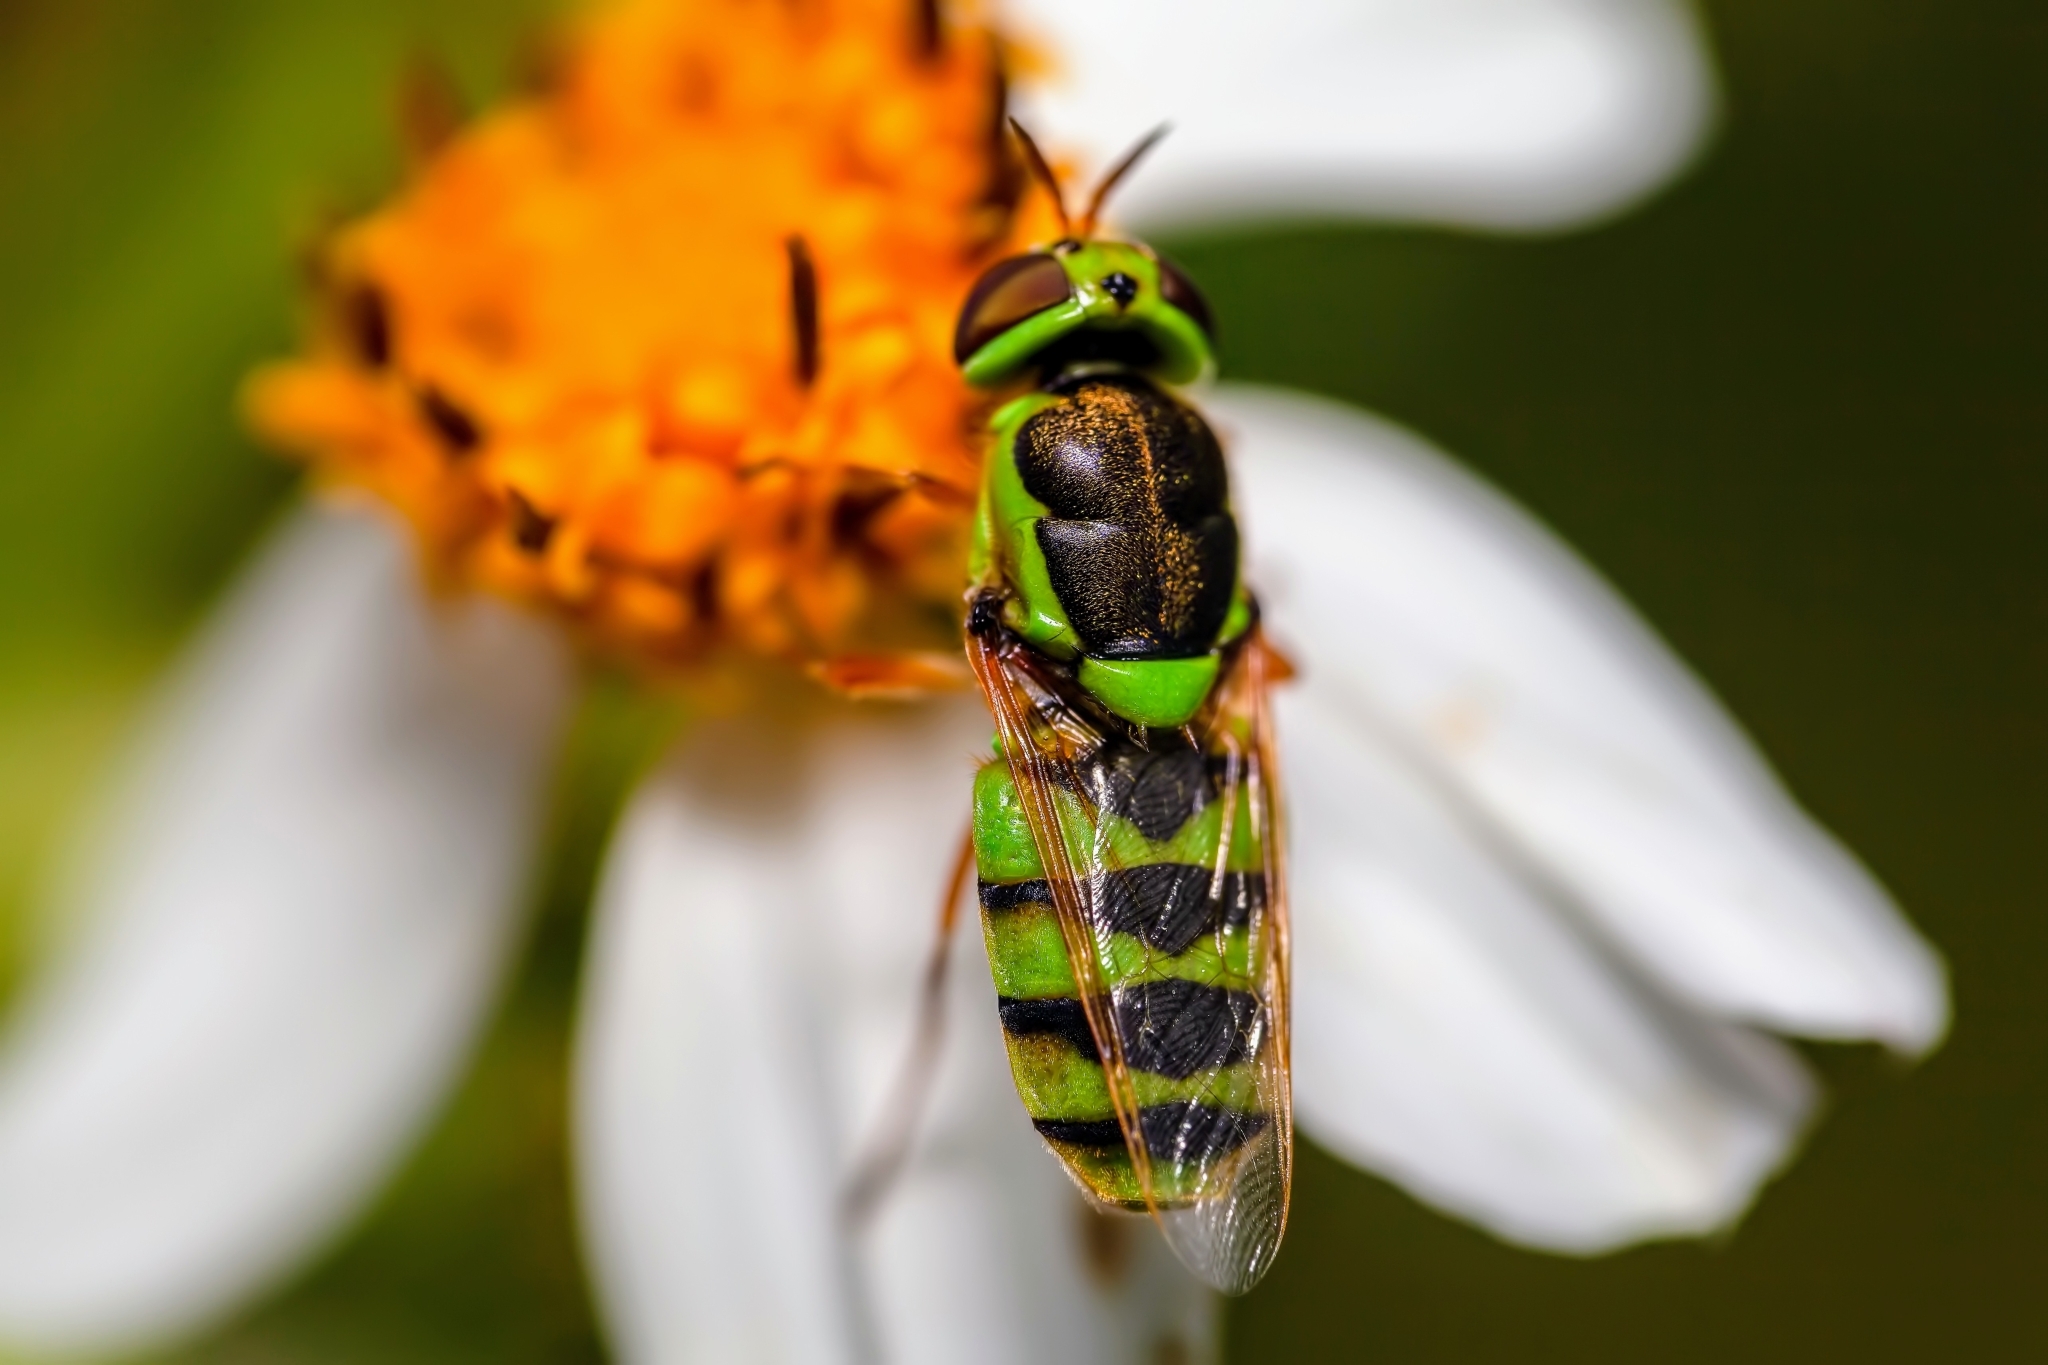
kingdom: Animalia
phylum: Arthropoda
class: Insecta
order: Diptera
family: Stratiomyidae
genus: Odontomyia
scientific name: Odontomyia cincta
